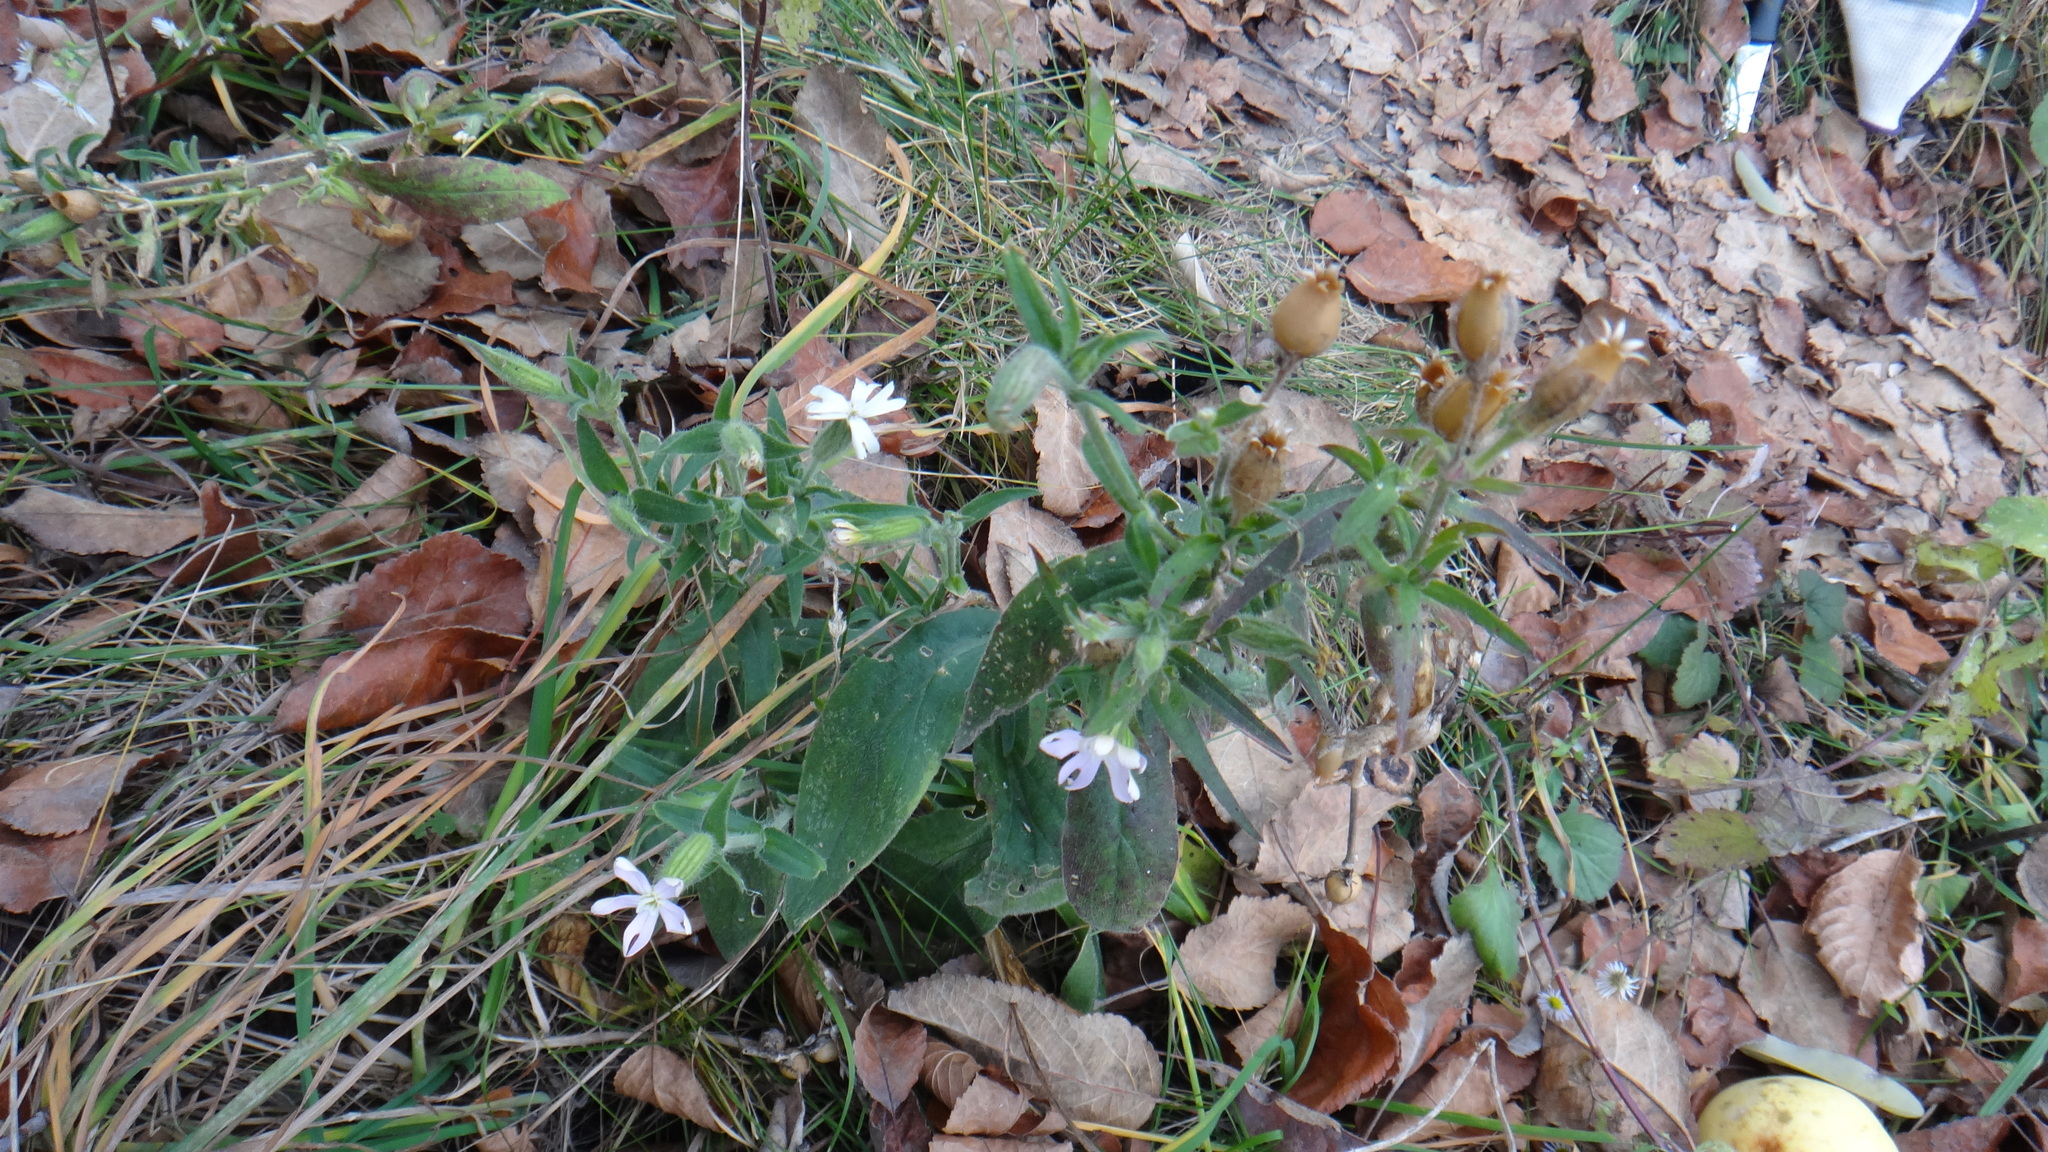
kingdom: Plantae
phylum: Tracheophyta
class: Magnoliopsida
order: Caryophyllales
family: Caryophyllaceae
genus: Silene
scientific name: Silene noctiflora
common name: Night-flowering catchfly
